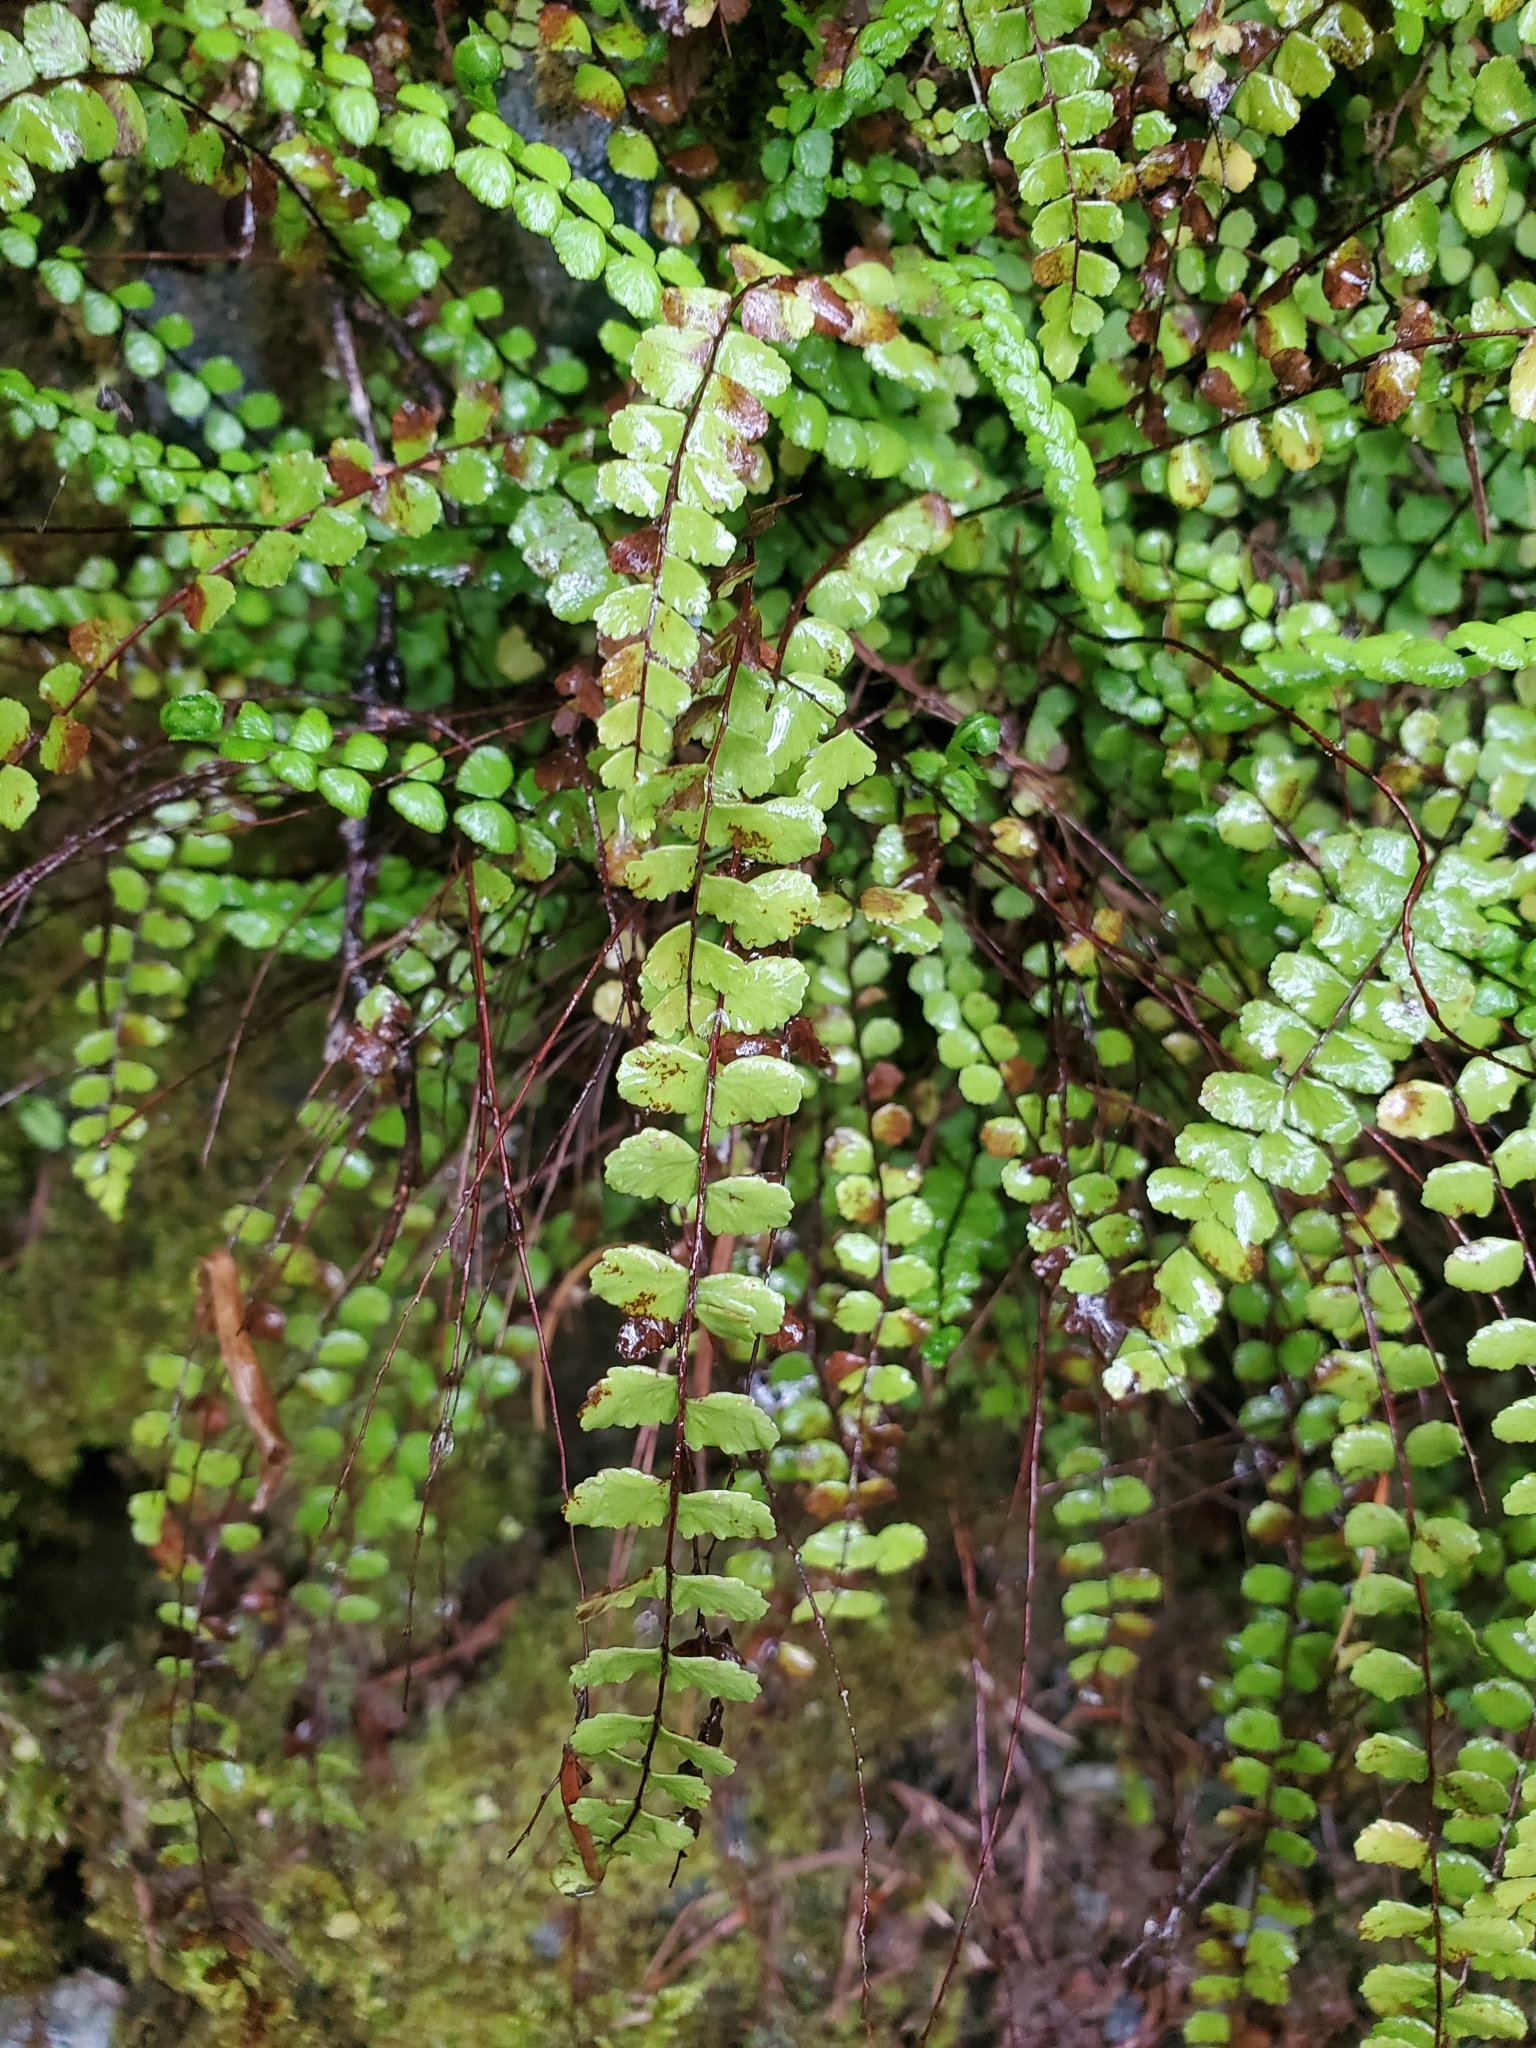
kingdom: Plantae
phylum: Tracheophyta
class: Polypodiopsida
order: Polypodiales
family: Aspleniaceae
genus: Asplenium
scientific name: Asplenium trichomanes
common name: Maidenhair spleenwort
